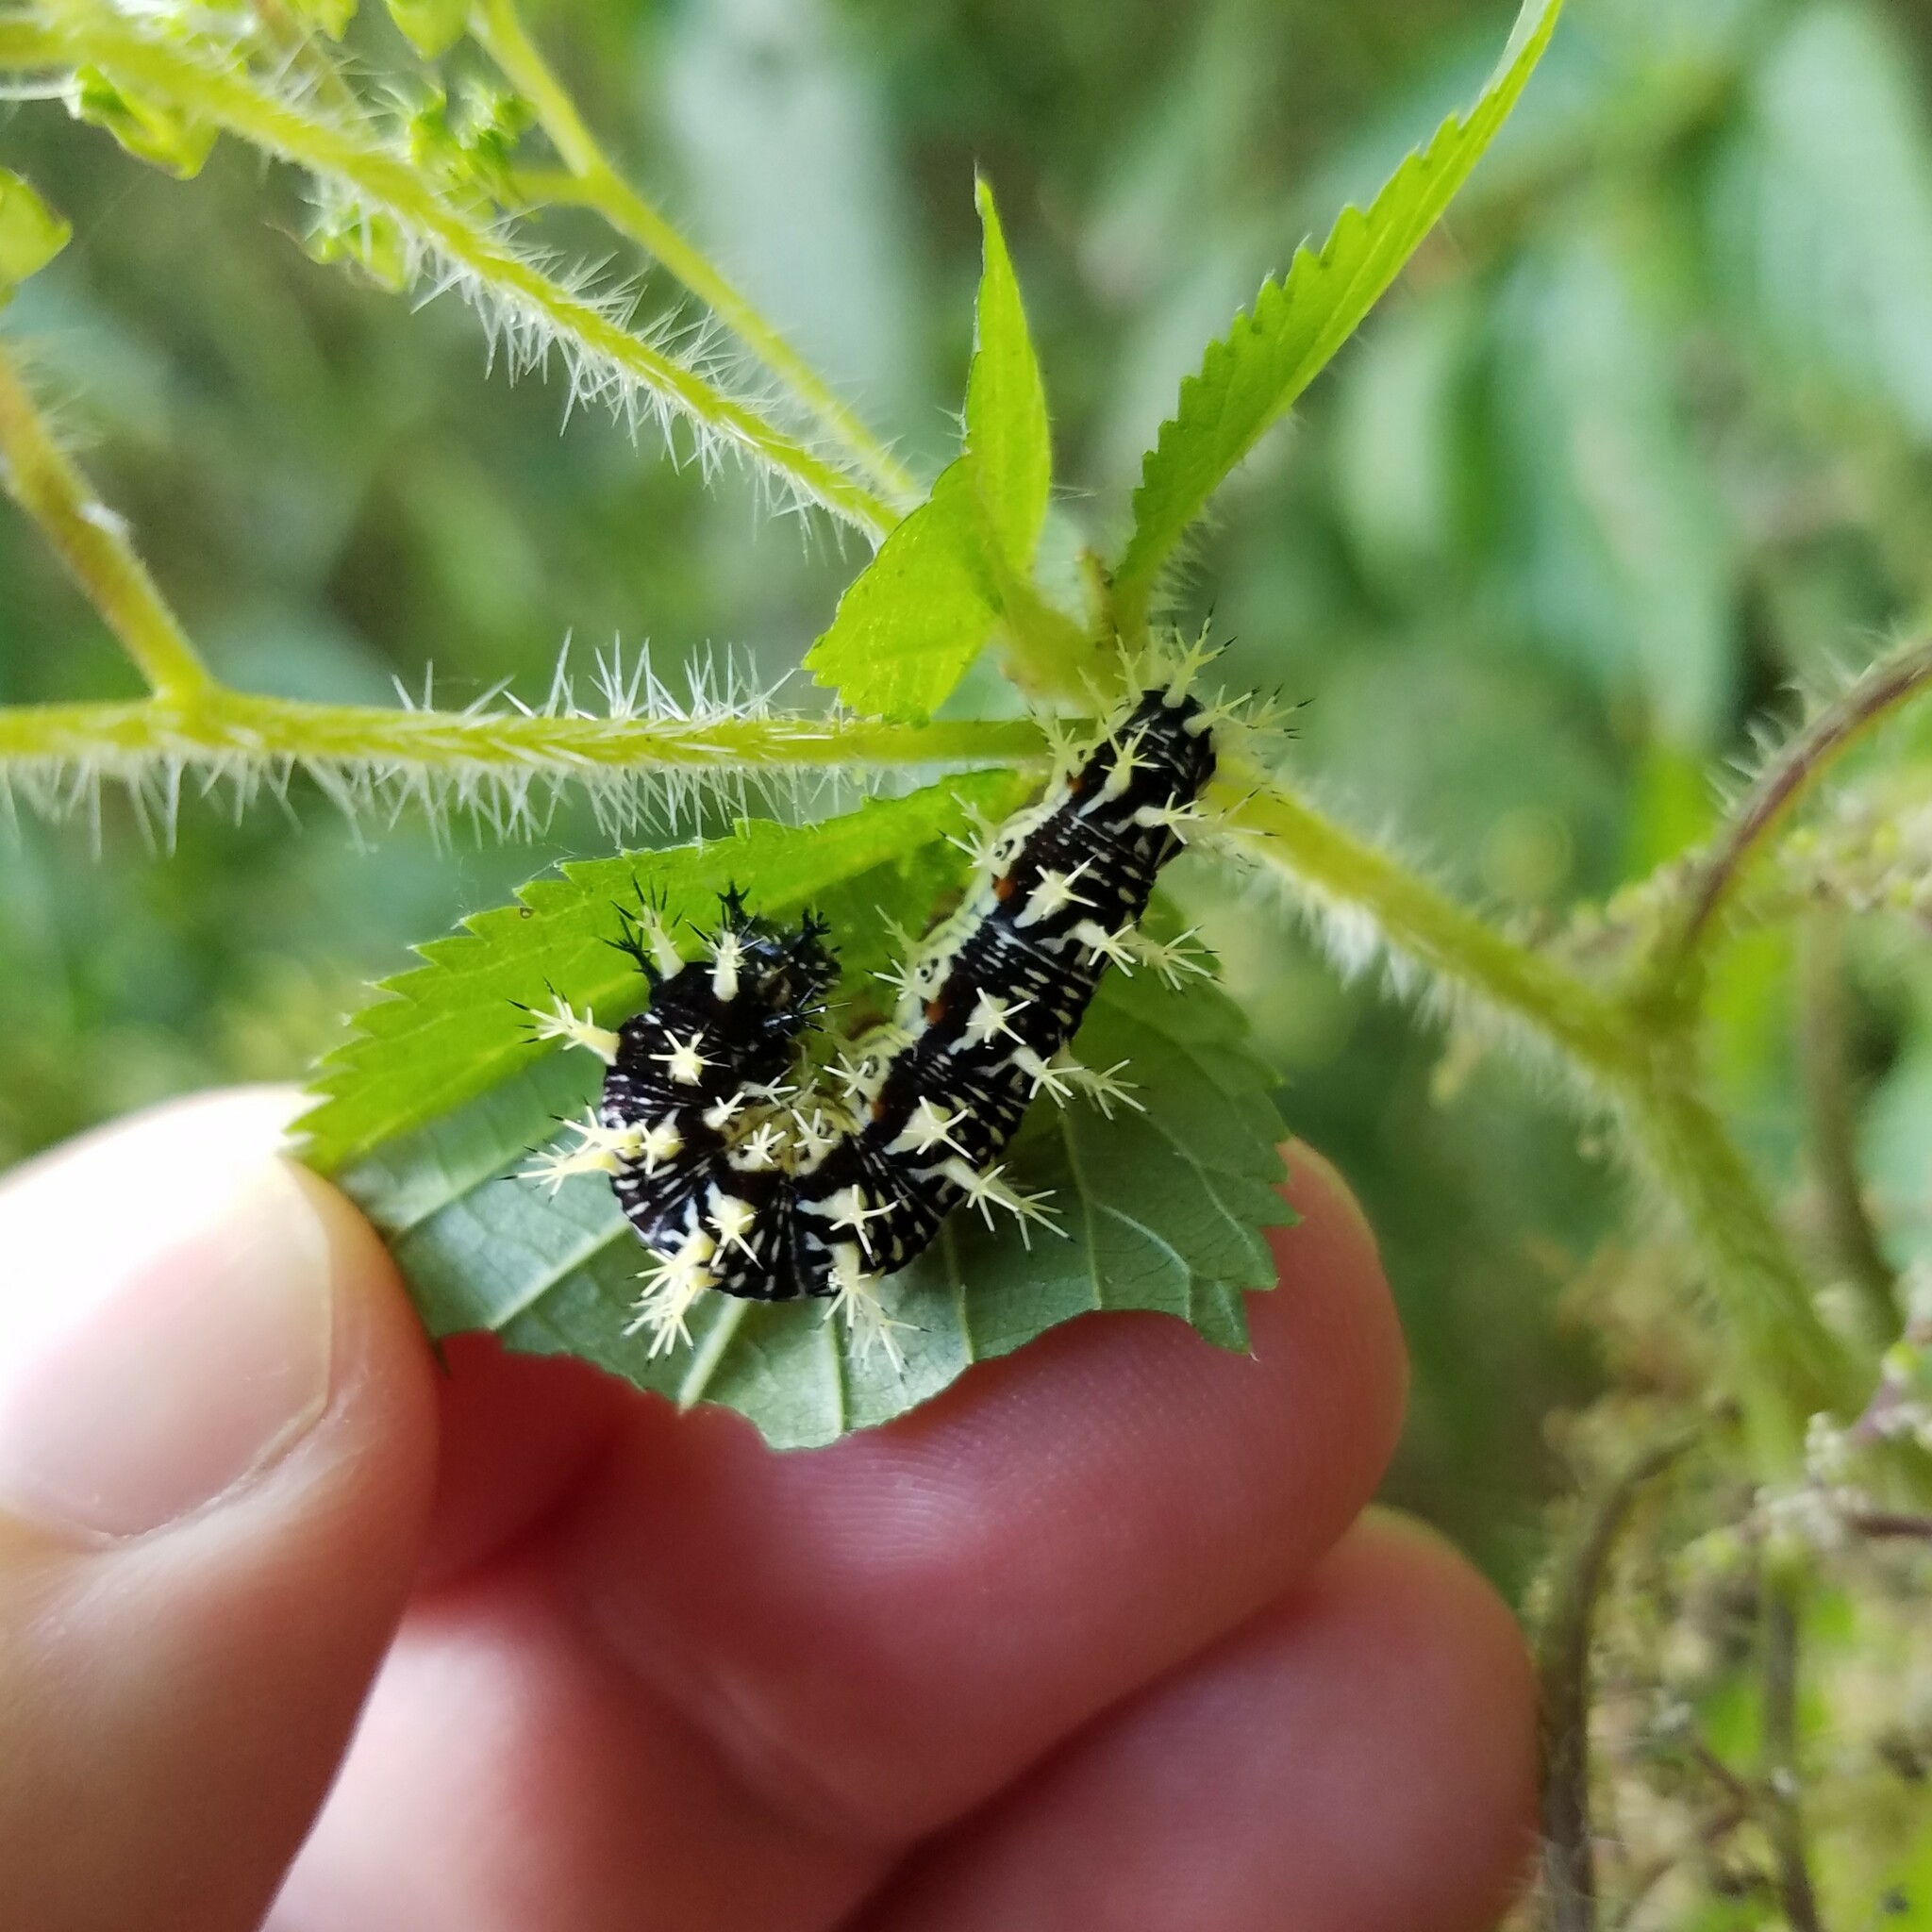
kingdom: Animalia
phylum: Arthropoda
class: Insecta
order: Lepidoptera
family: Nymphalidae
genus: Polygonia
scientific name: Polygonia comma
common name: Eastern comma
